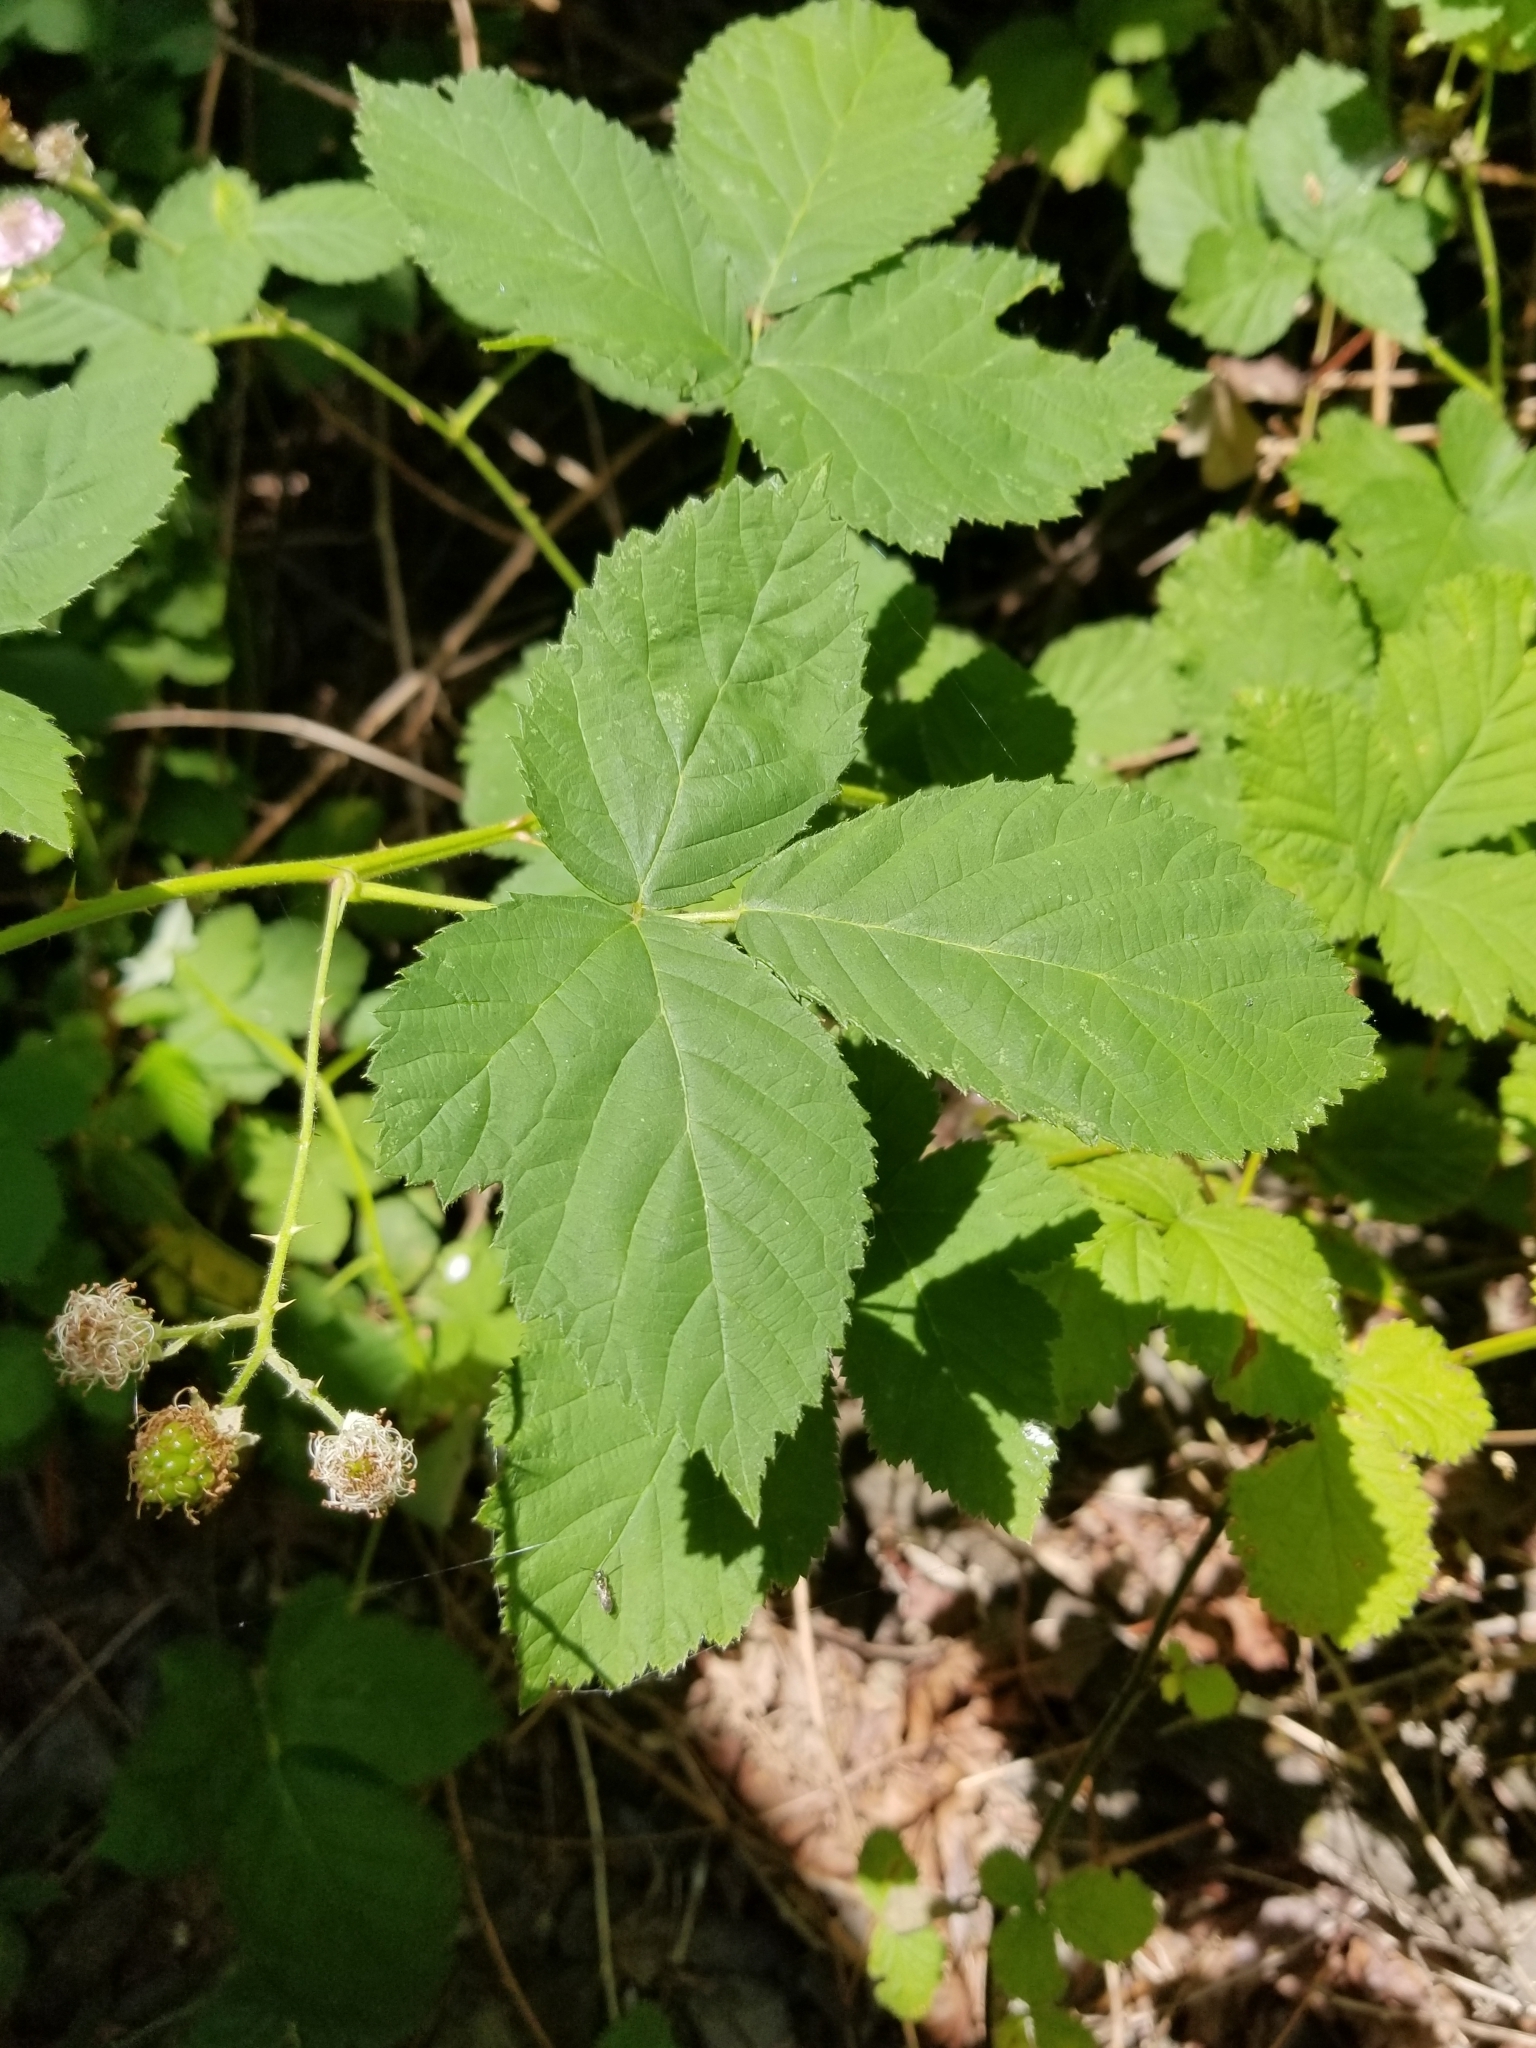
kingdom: Plantae
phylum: Tracheophyta
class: Magnoliopsida
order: Rosales
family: Rosaceae
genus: Rubus
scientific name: Rubus armeniacus
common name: Himalayan blackberry
